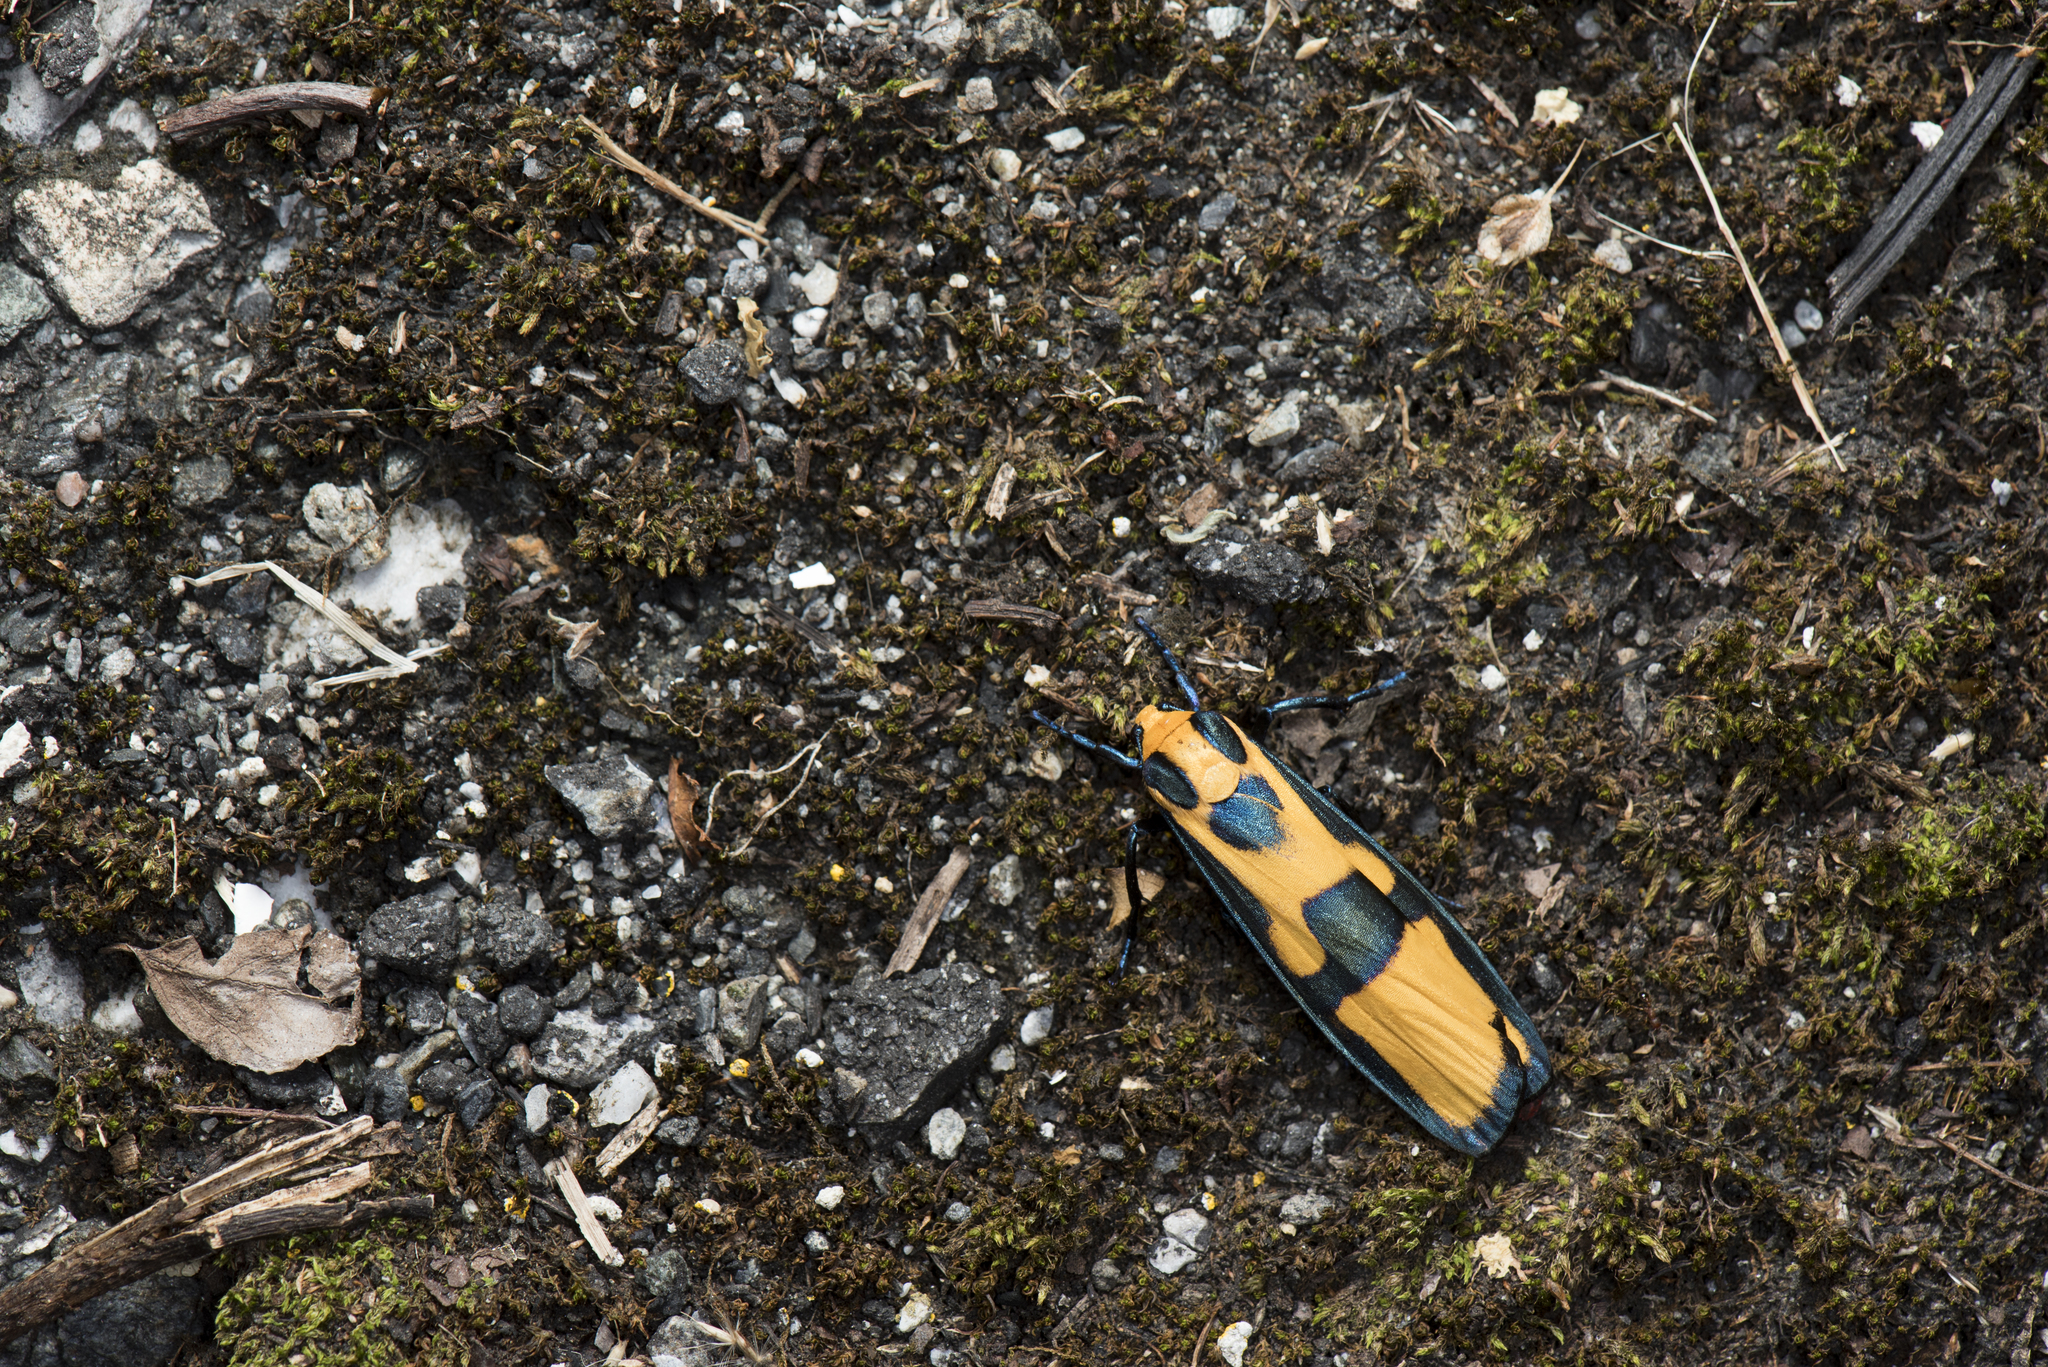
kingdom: Animalia
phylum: Arthropoda
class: Insecta
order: Lepidoptera
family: Erebidae
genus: Chrysaeglia
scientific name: Chrysaeglia magnifica
